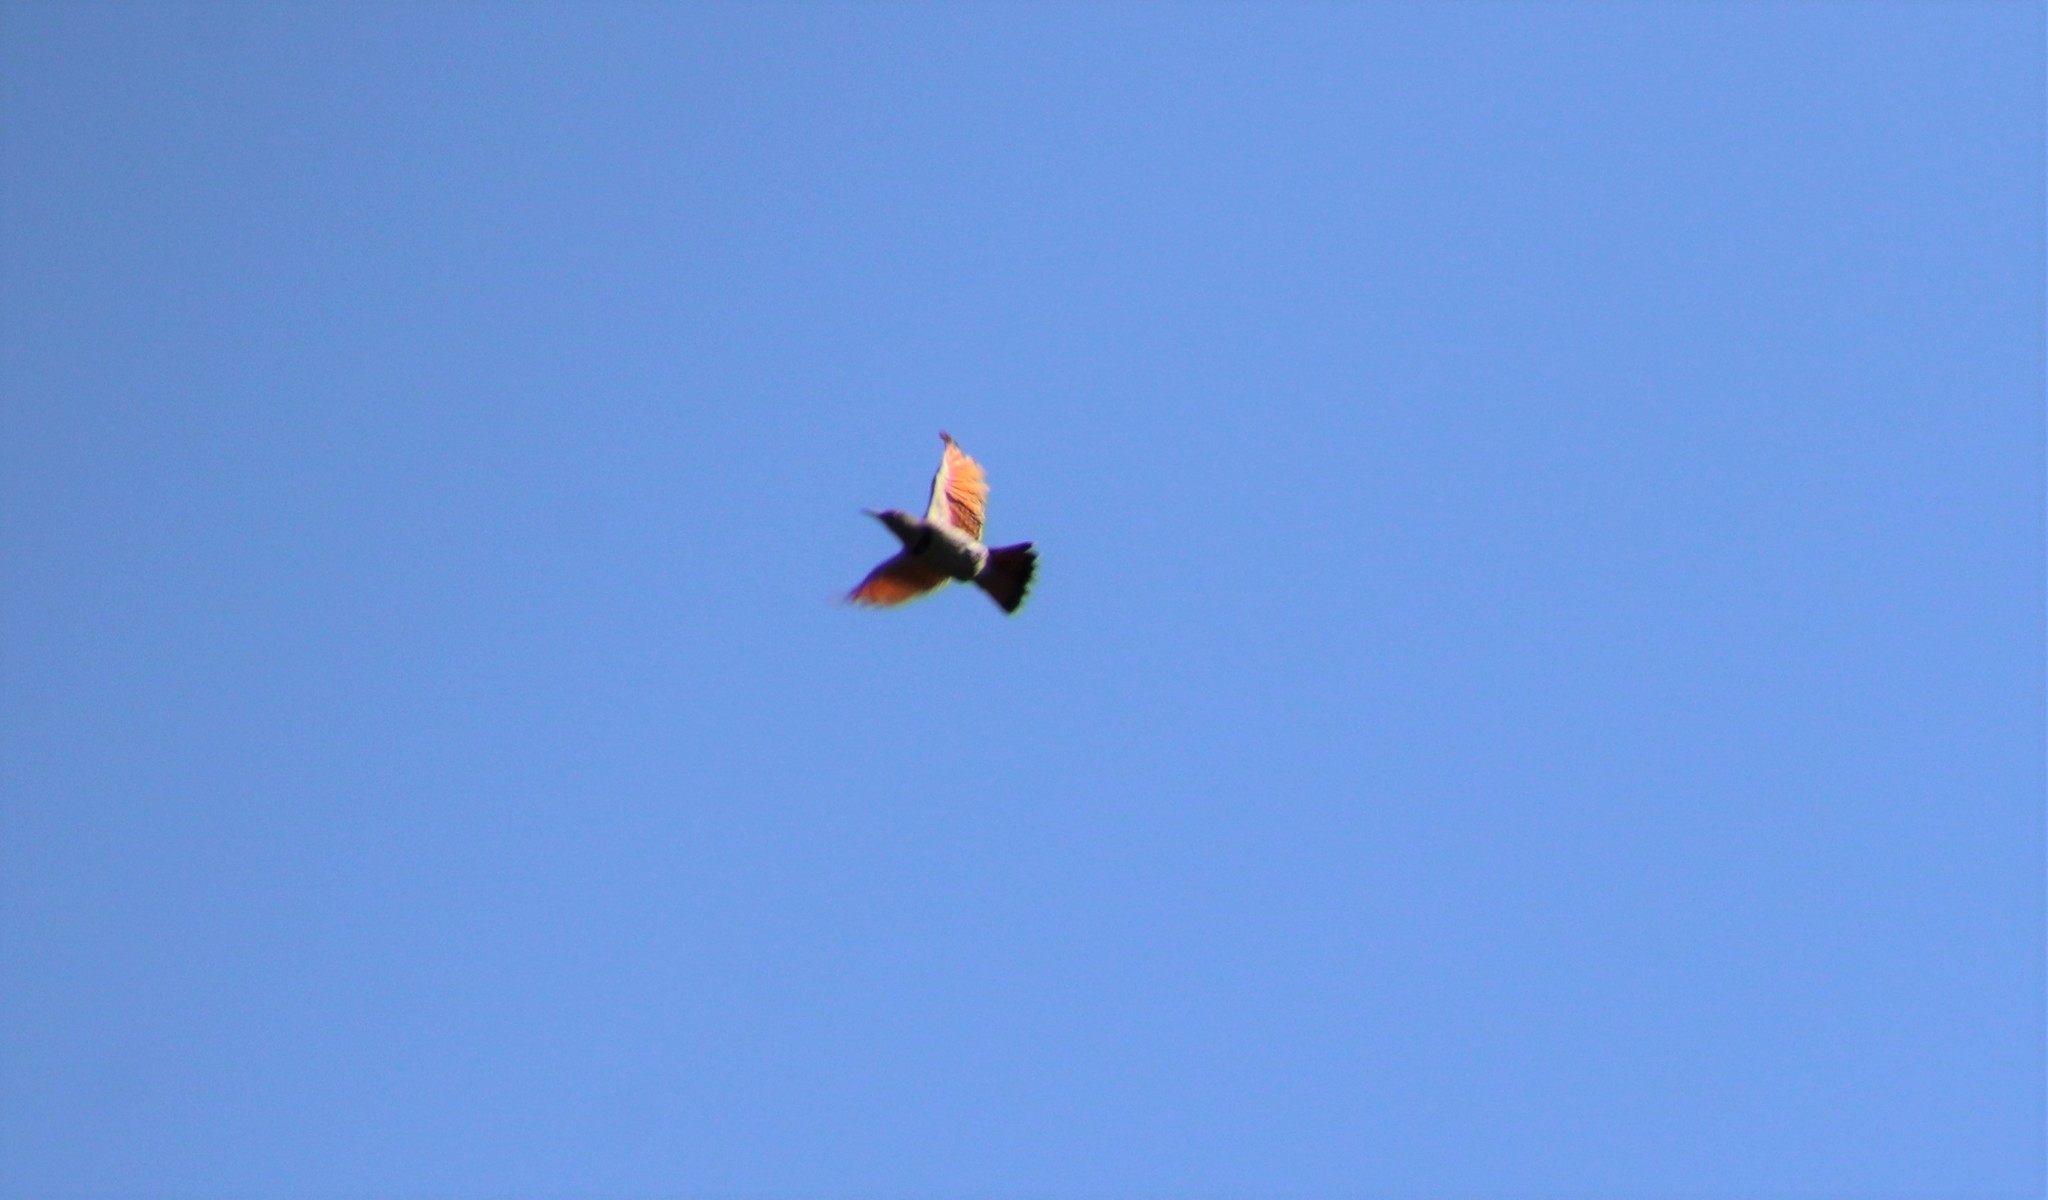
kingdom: Animalia
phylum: Chordata
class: Aves
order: Piciformes
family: Picidae
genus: Colaptes
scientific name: Colaptes auratus
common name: Northern flicker
